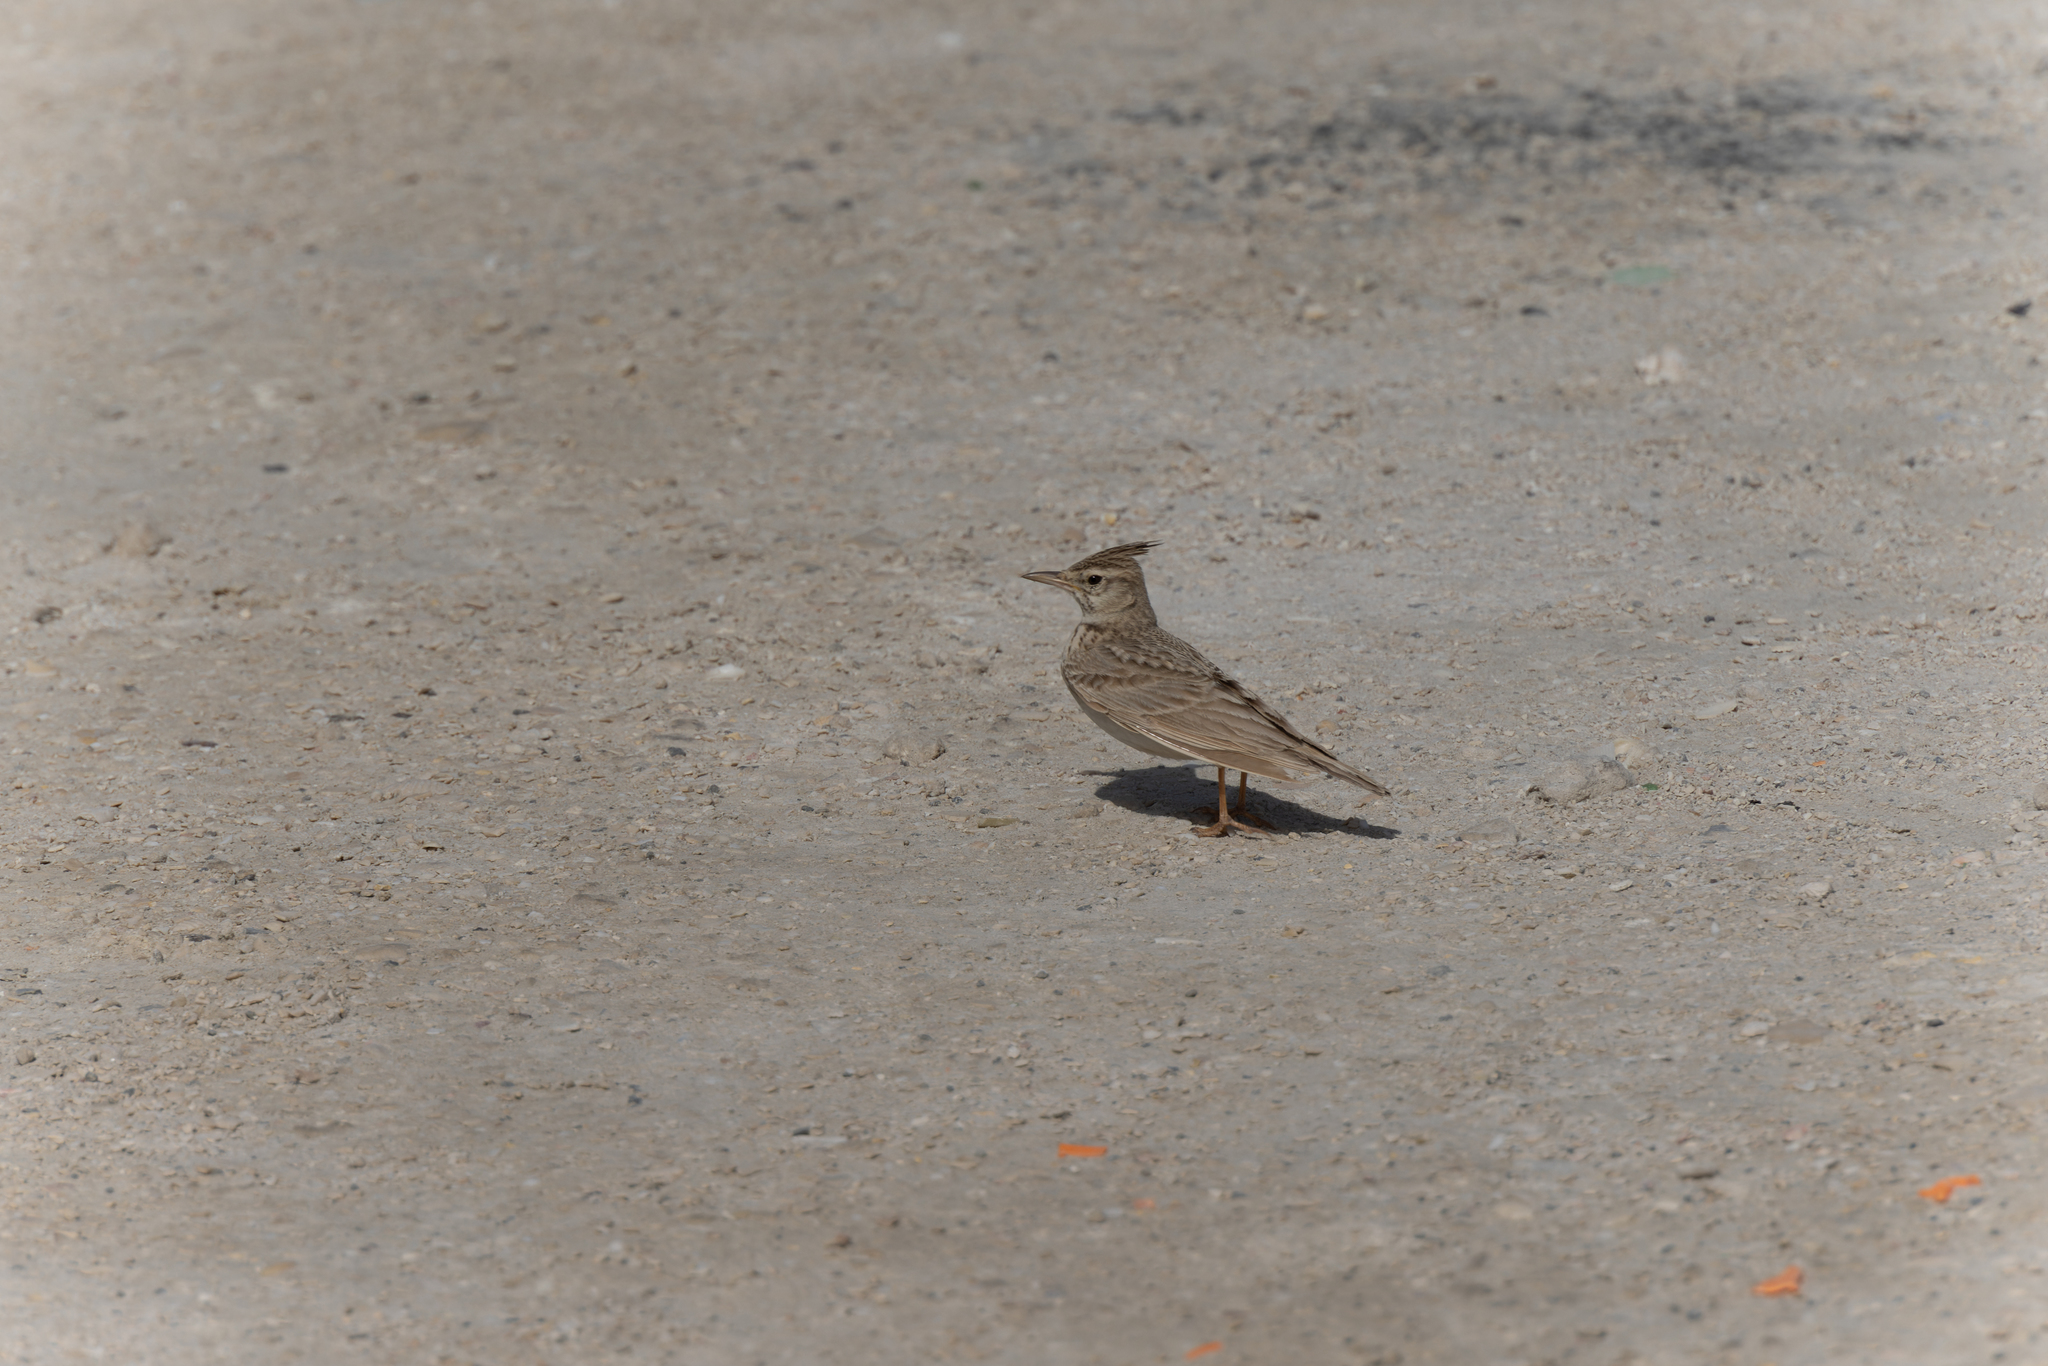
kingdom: Animalia
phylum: Chordata
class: Aves
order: Passeriformes
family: Alaudidae
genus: Galerida
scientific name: Galerida cristata
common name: Crested lark
